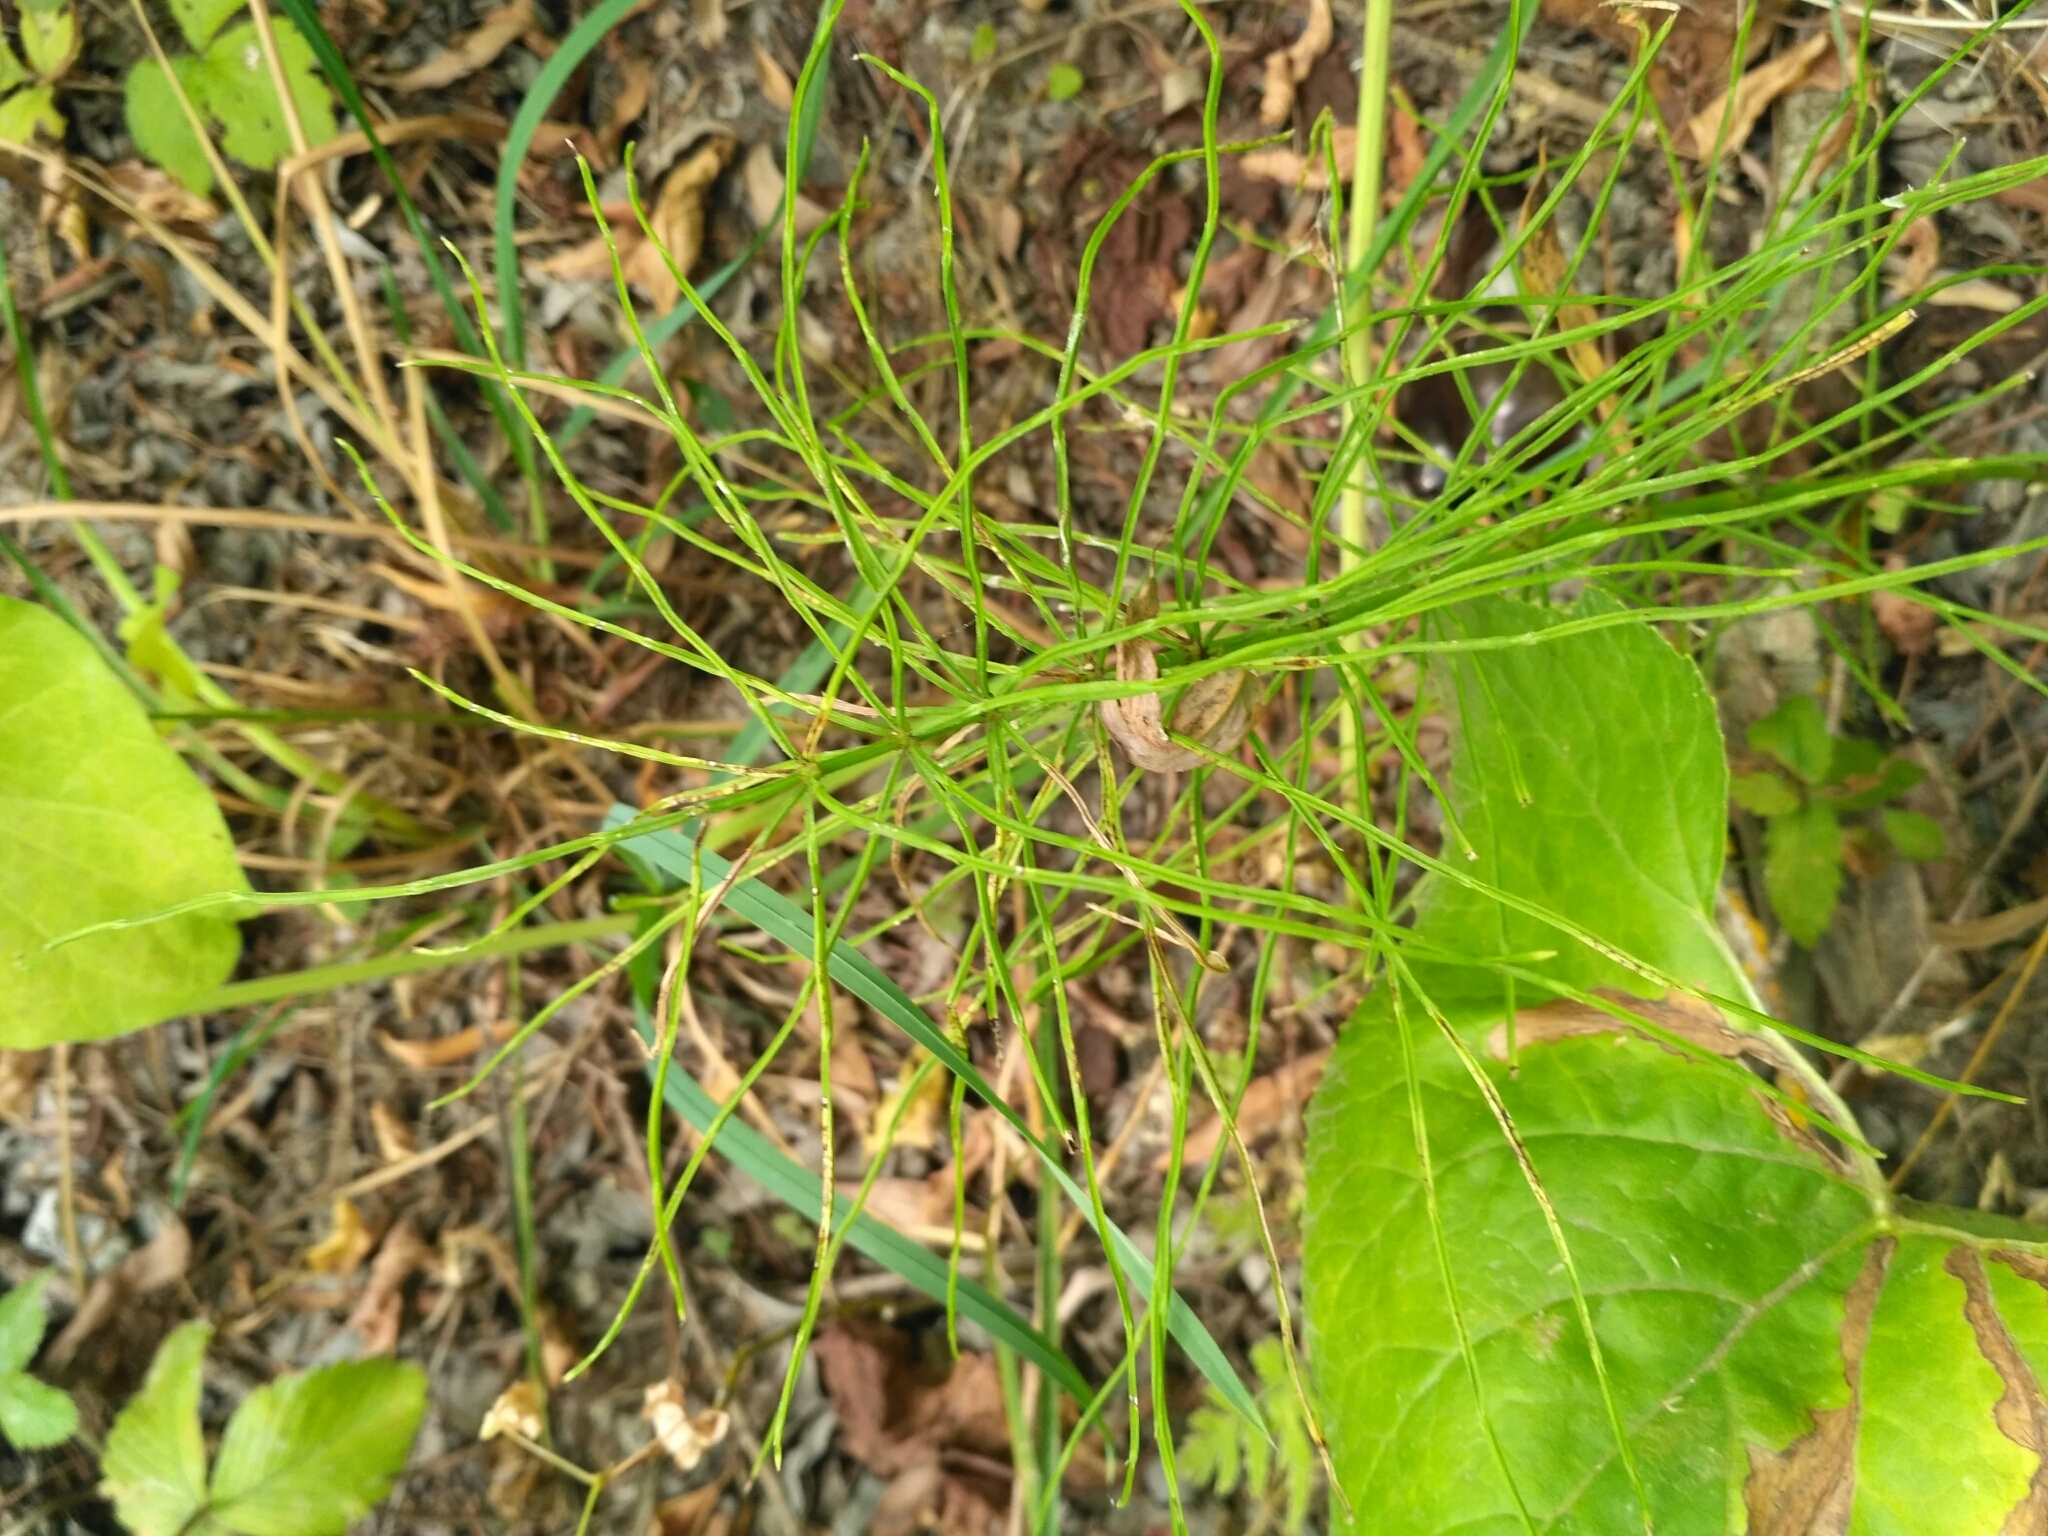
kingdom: Plantae
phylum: Tracheophyta
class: Polypodiopsida
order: Equisetales
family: Equisetaceae
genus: Equisetum
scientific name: Equisetum arvense
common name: Field horsetail
